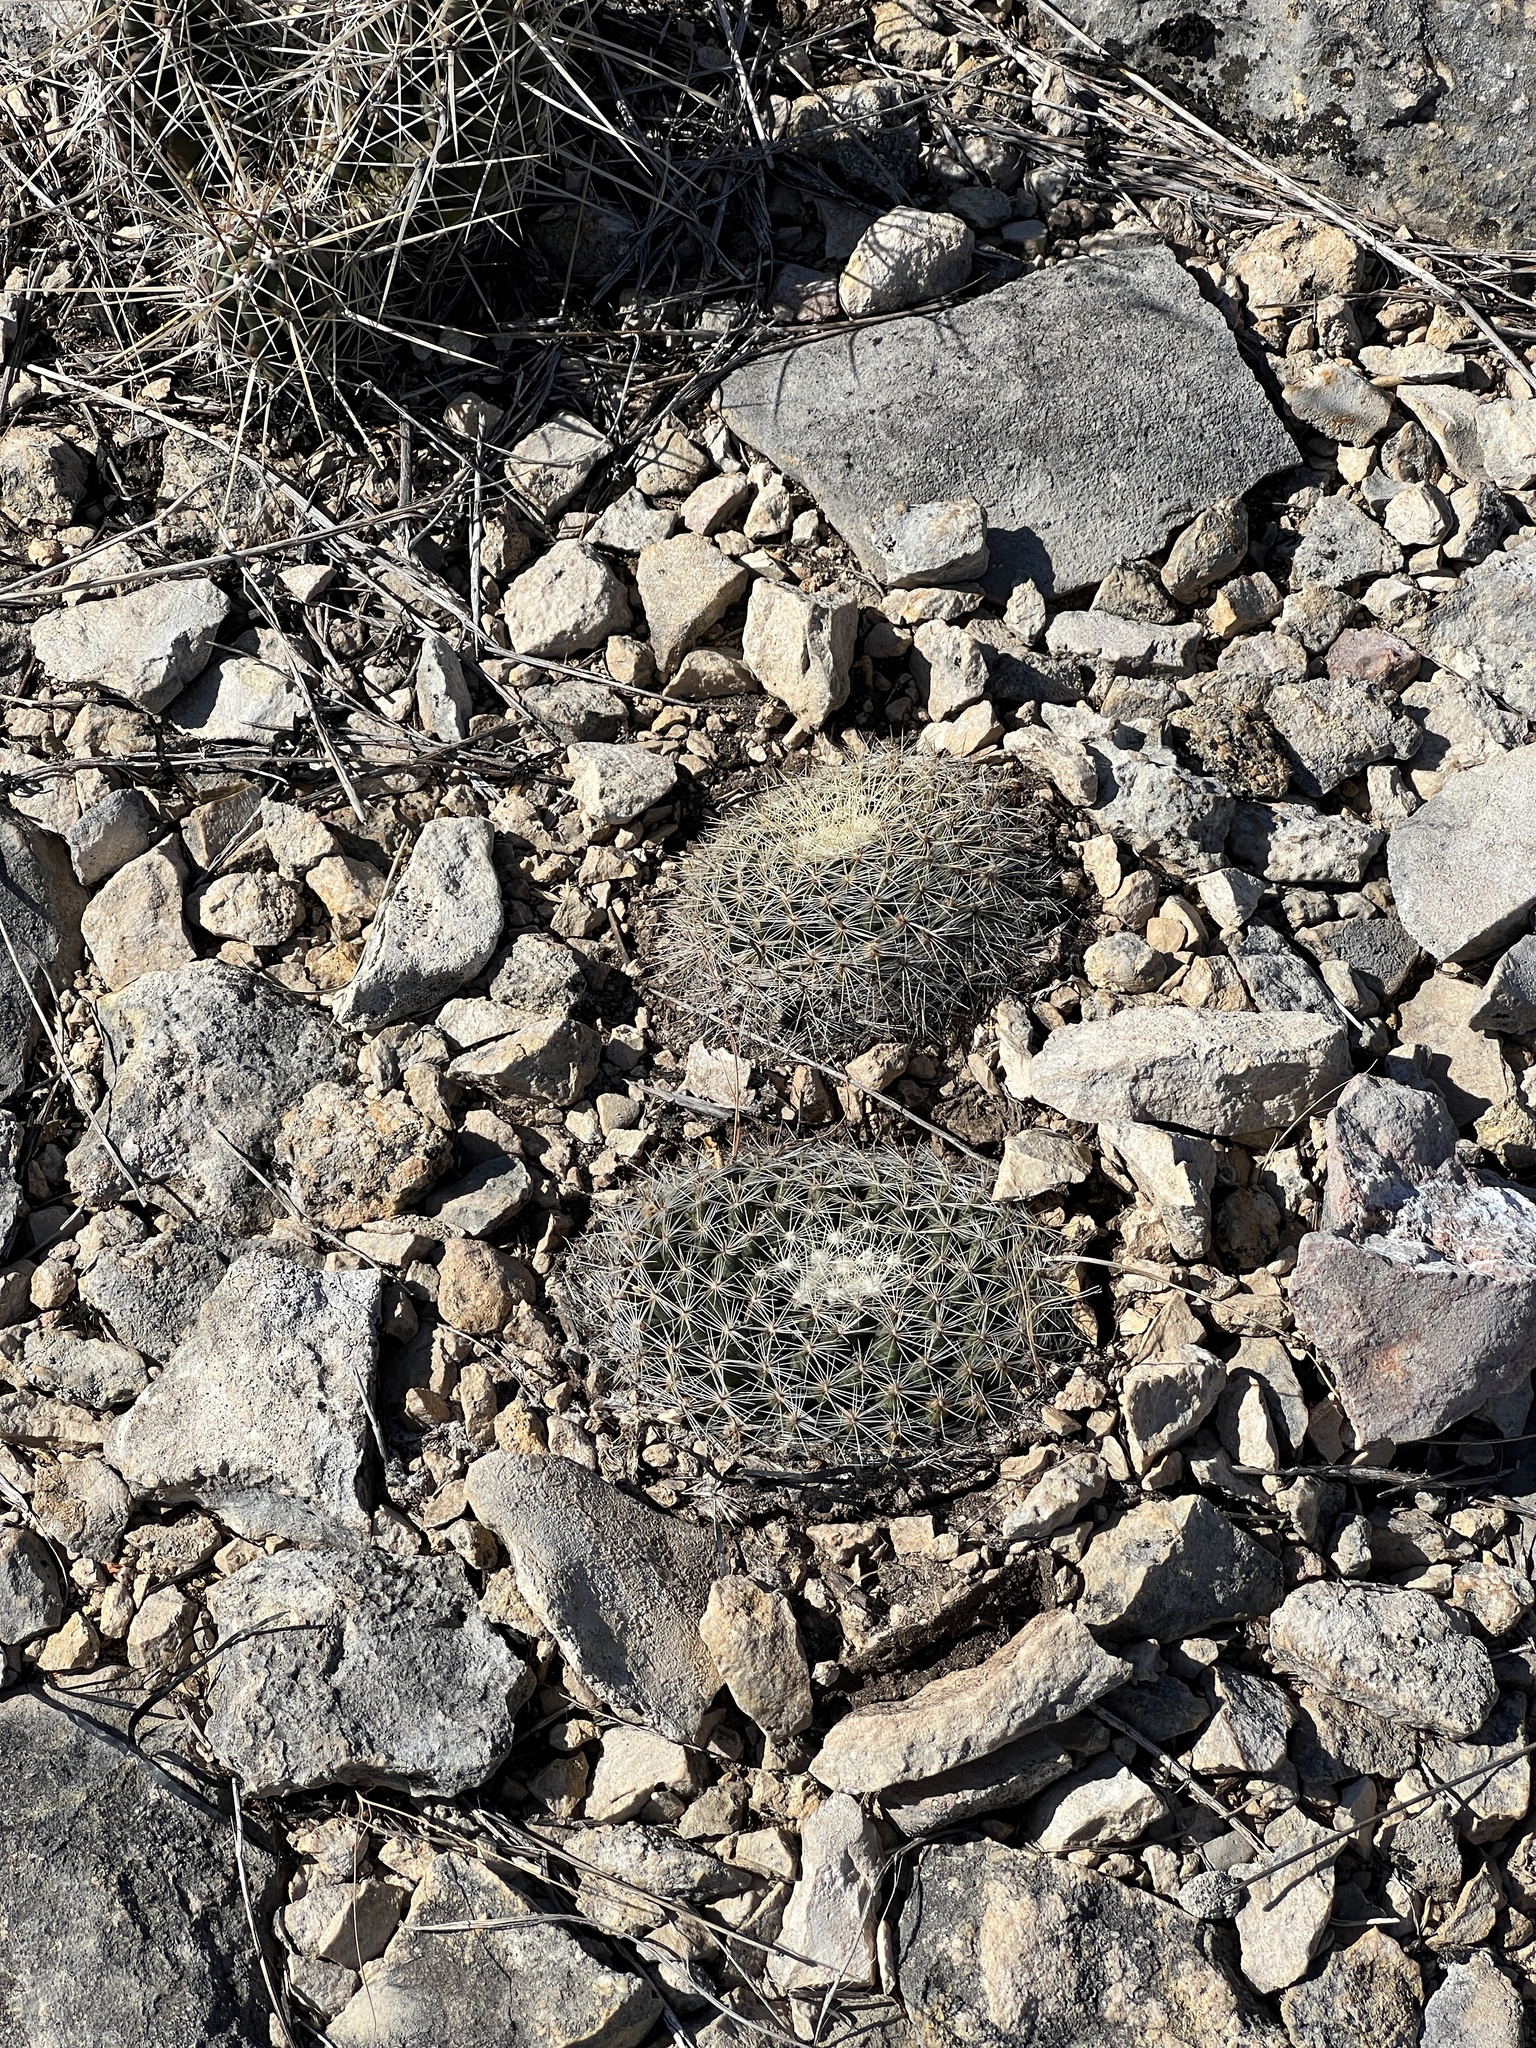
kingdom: Plantae
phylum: Tracheophyta
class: Magnoliopsida
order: Caryophyllales
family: Cactaceae
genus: Mammillaria
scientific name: Mammillaria heyderi
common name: Little nipple cactus
